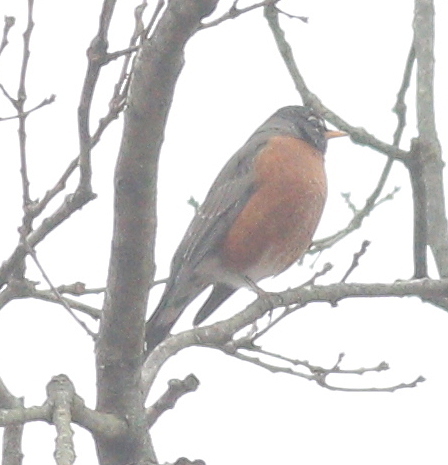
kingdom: Animalia
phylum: Chordata
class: Aves
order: Passeriformes
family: Turdidae
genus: Turdus
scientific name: Turdus migratorius
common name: American robin
